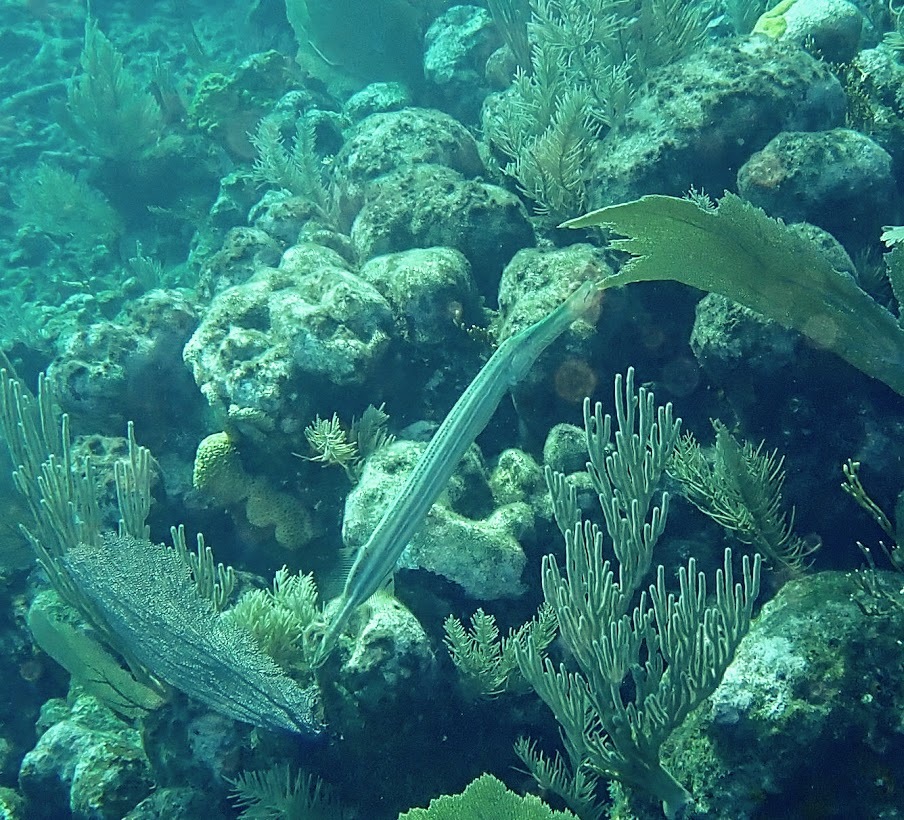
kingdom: Animalia
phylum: Chordata
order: Syngnathiformes
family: Aulostomidae
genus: Aulostomus
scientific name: Aulostomus maculatus
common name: West atlantic trumpetfish
